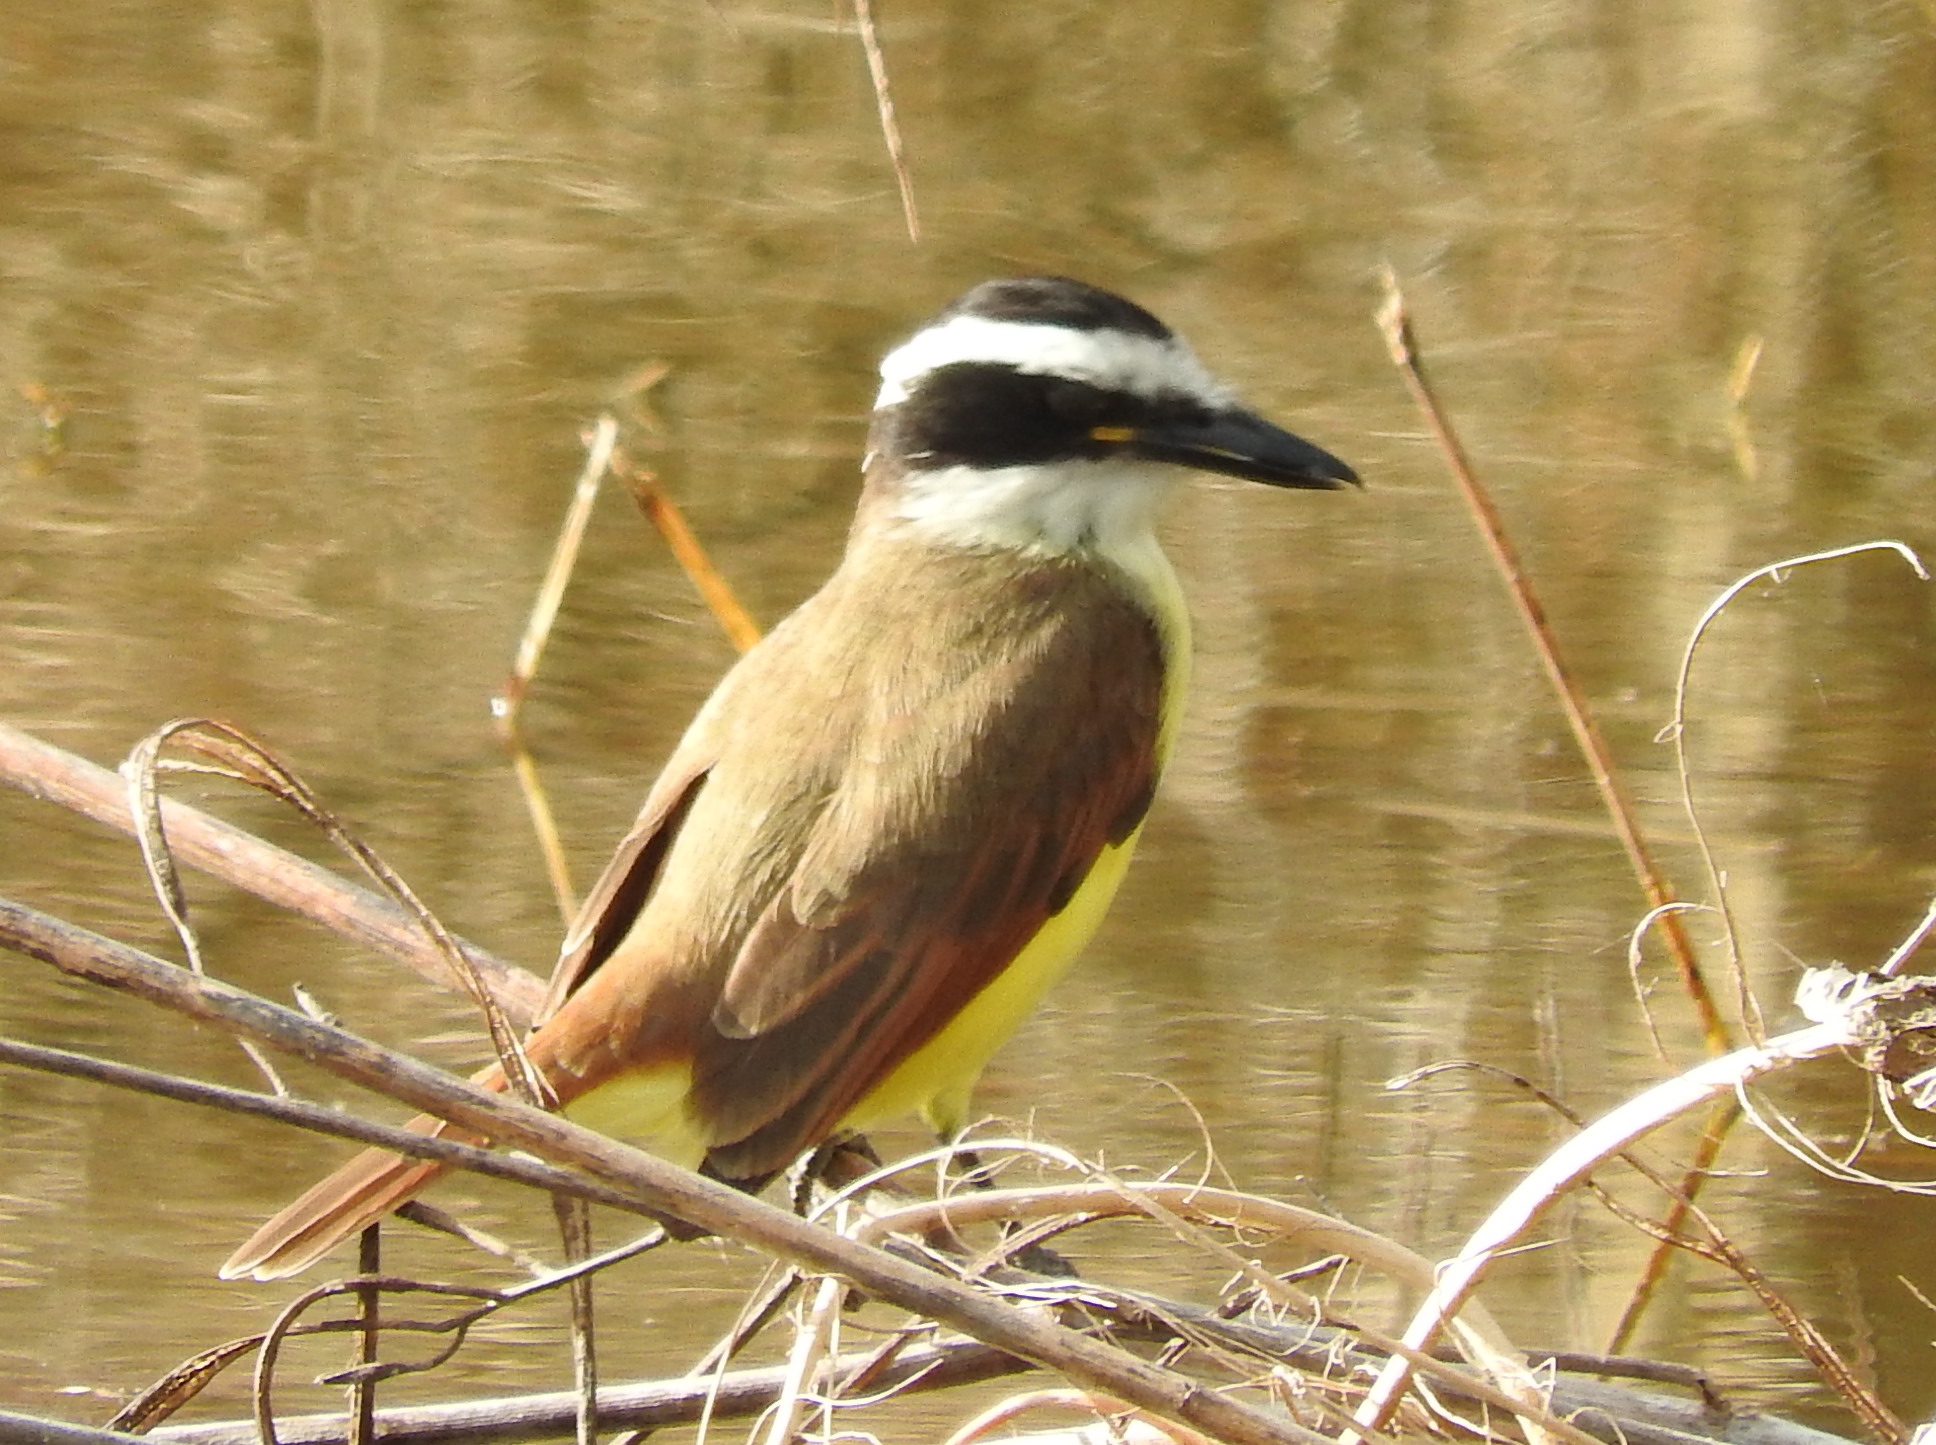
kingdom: Animalia
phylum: Chordata
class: Aves
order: Passeriformes
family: Tyrannidae
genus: Pitangus
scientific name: Pitangus sulphuratus
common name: Great kiskadee
